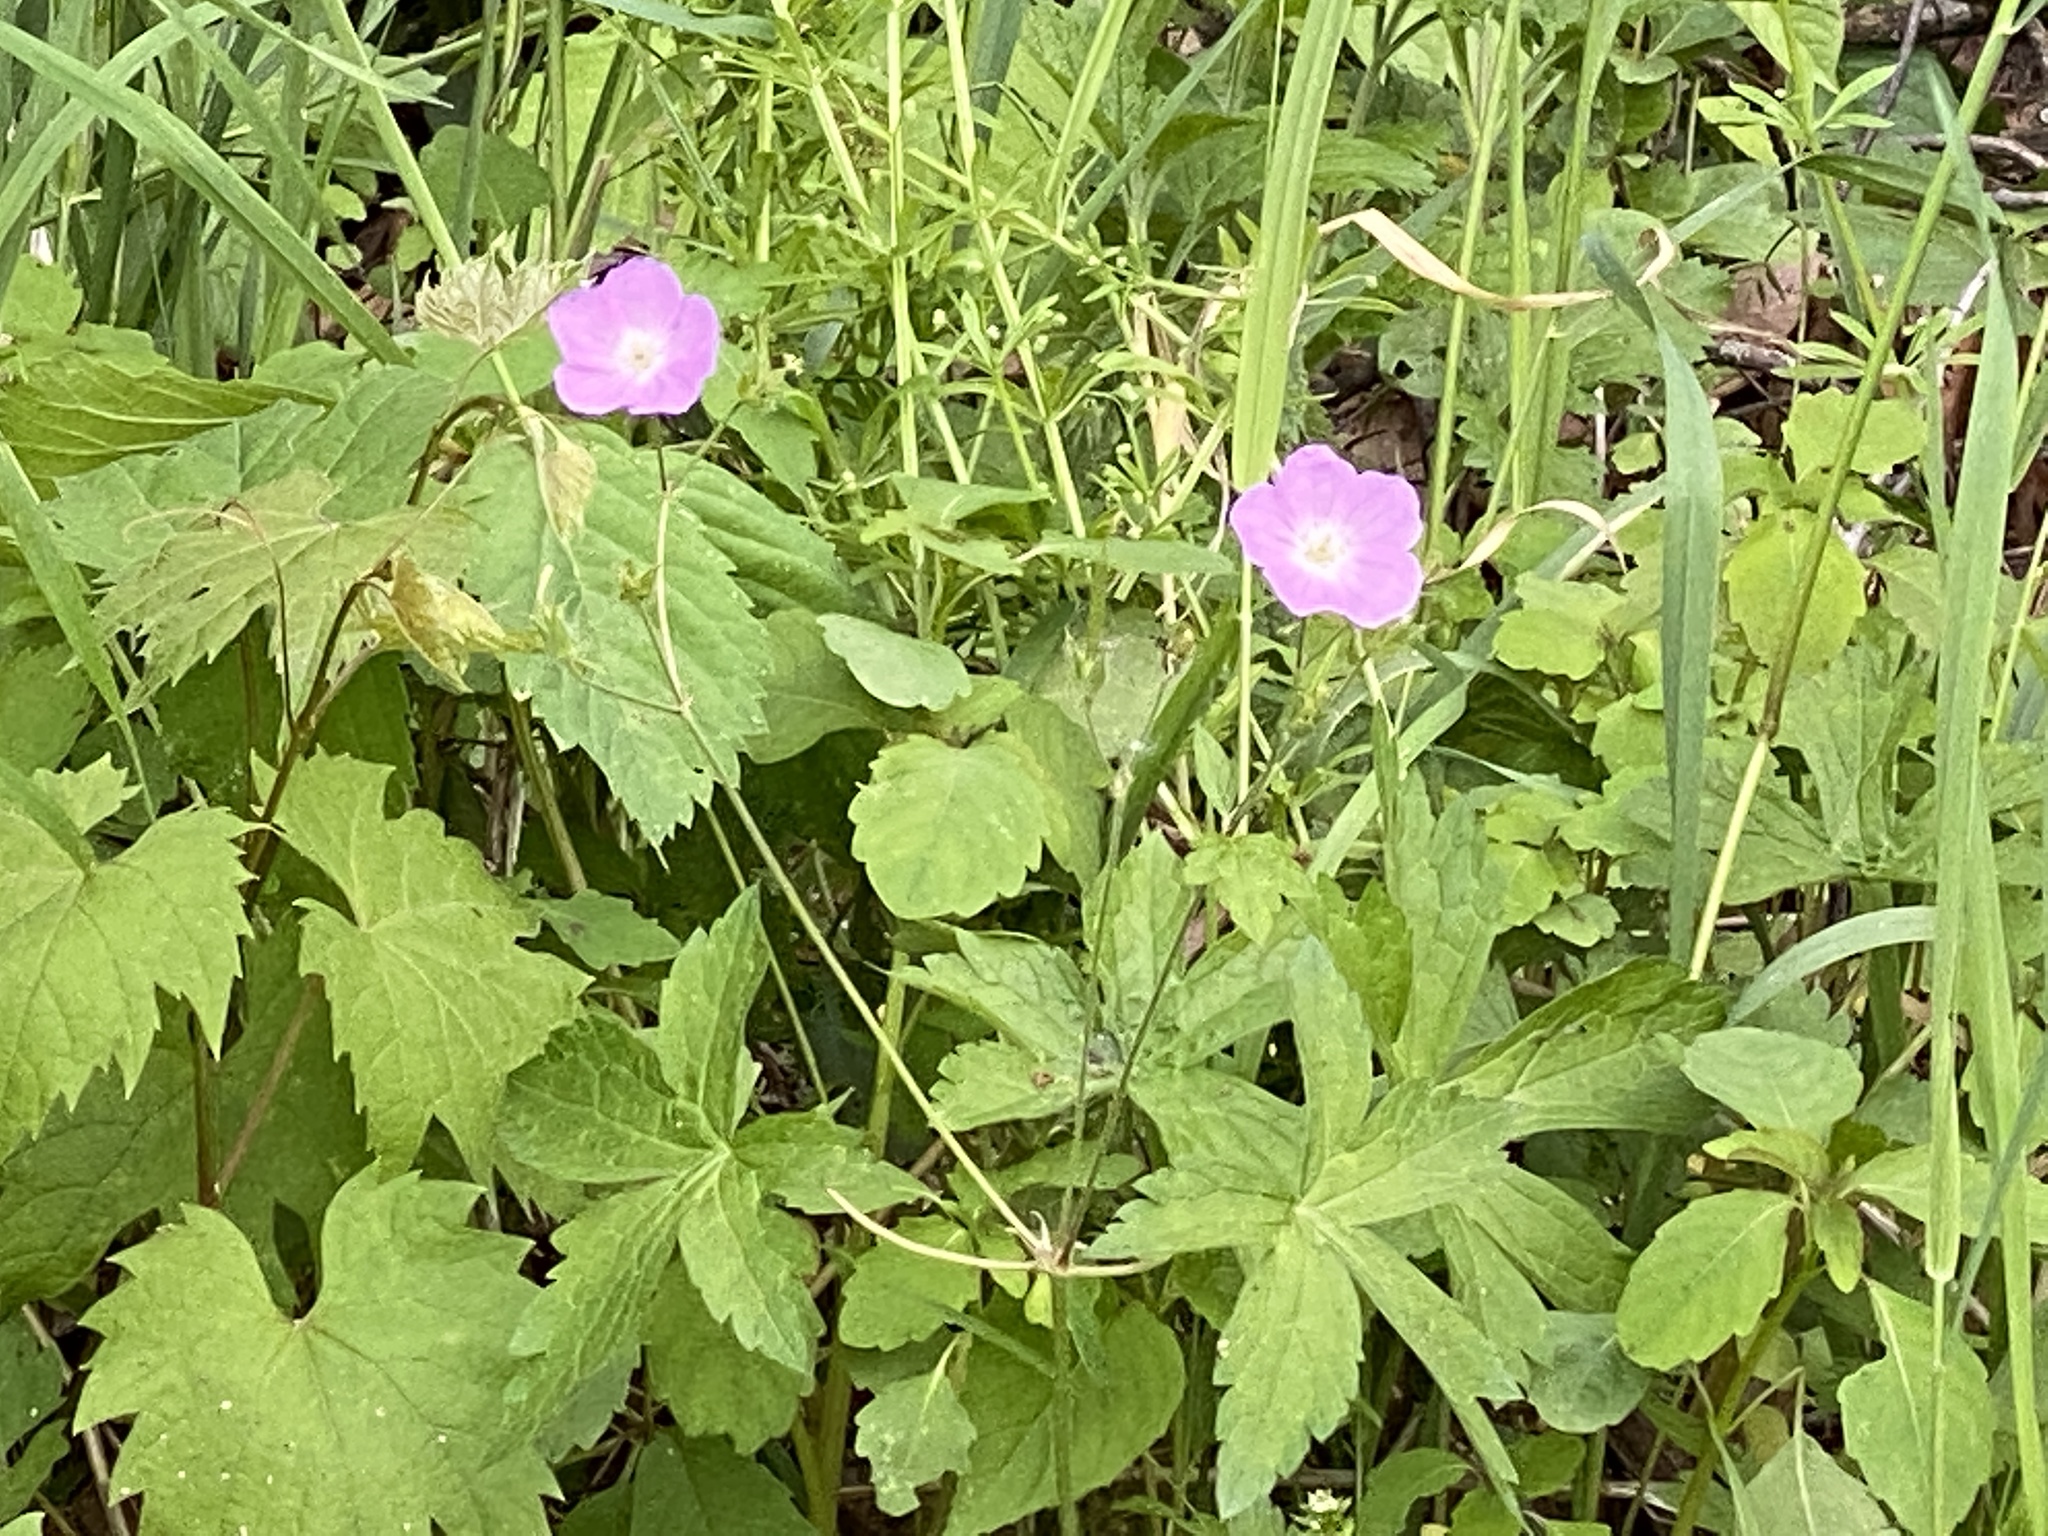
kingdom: Plantae
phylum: Tracheophyta
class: Magnoliopsida
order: Geraniales
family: Geraniaceae
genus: Geranium
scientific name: Geranium maculatum
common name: Spotted geranium
